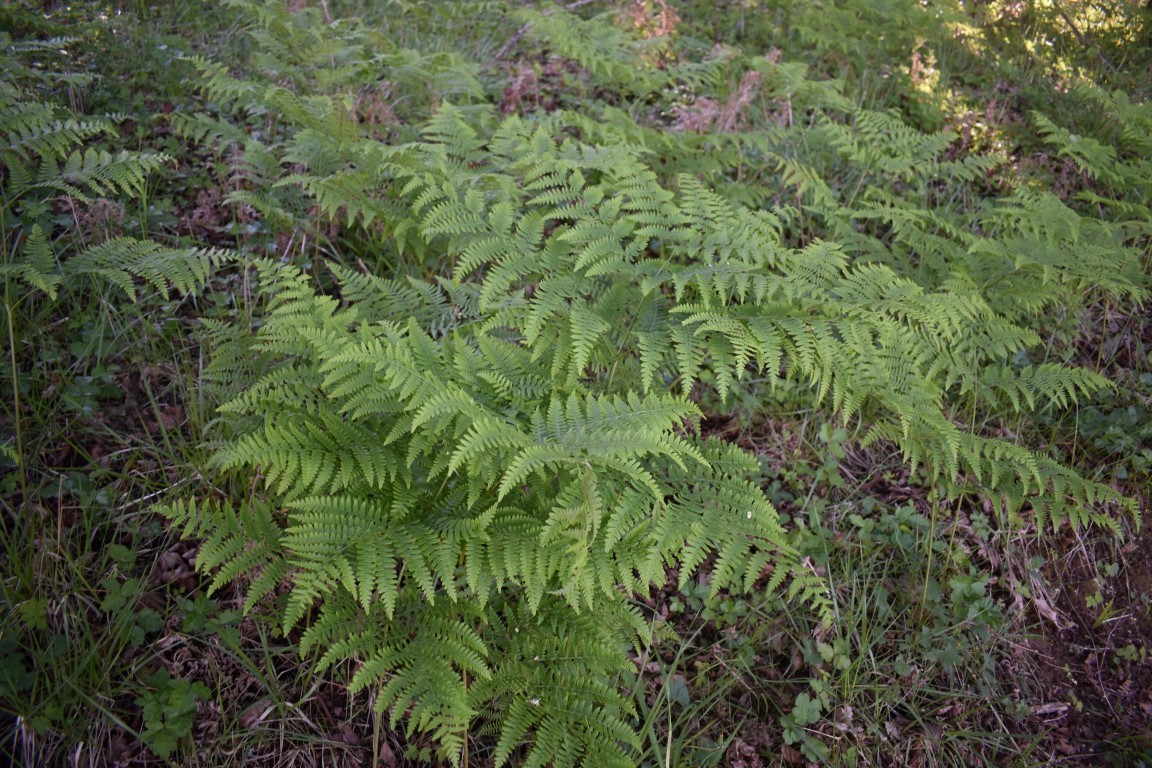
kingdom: Plantae
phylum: Tracheophyta
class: Polypodiopsida
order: Polypodiales
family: Dennstaedtiaceae
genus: Pteridium
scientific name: Pteridium aquilinum
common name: Bracken
